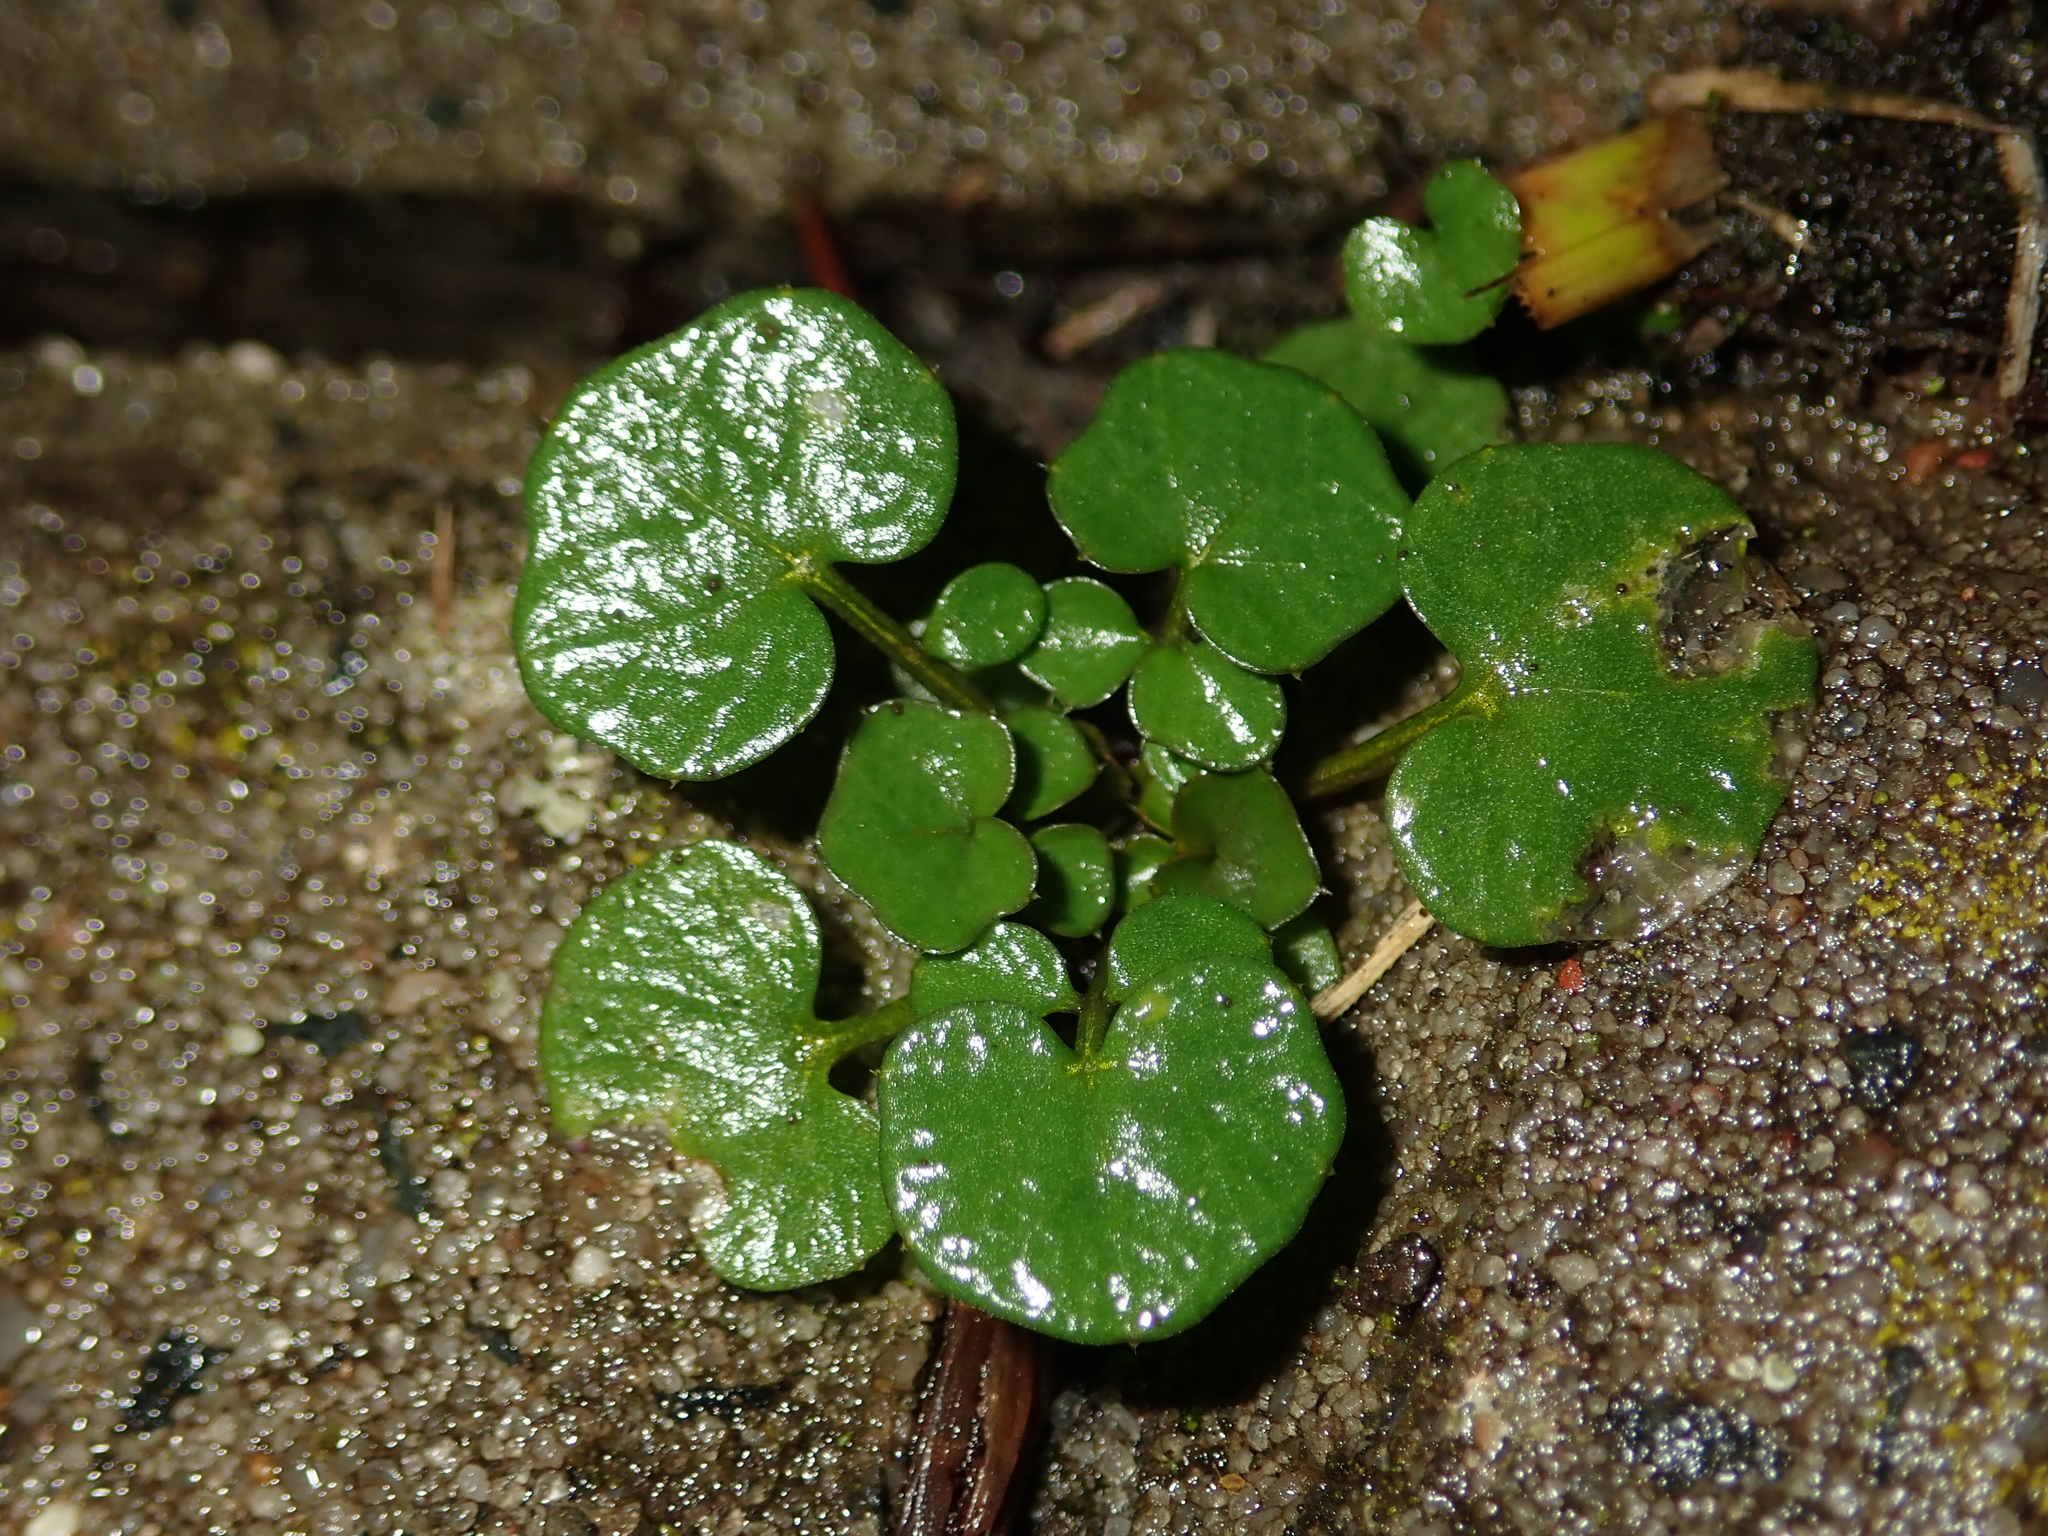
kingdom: Plantae
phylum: Tracheophyta
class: Magnoliopsida
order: Brassicales
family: Brassicaceae
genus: Cardamine
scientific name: Cardamine hirsuta
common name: Hairy bittercress
